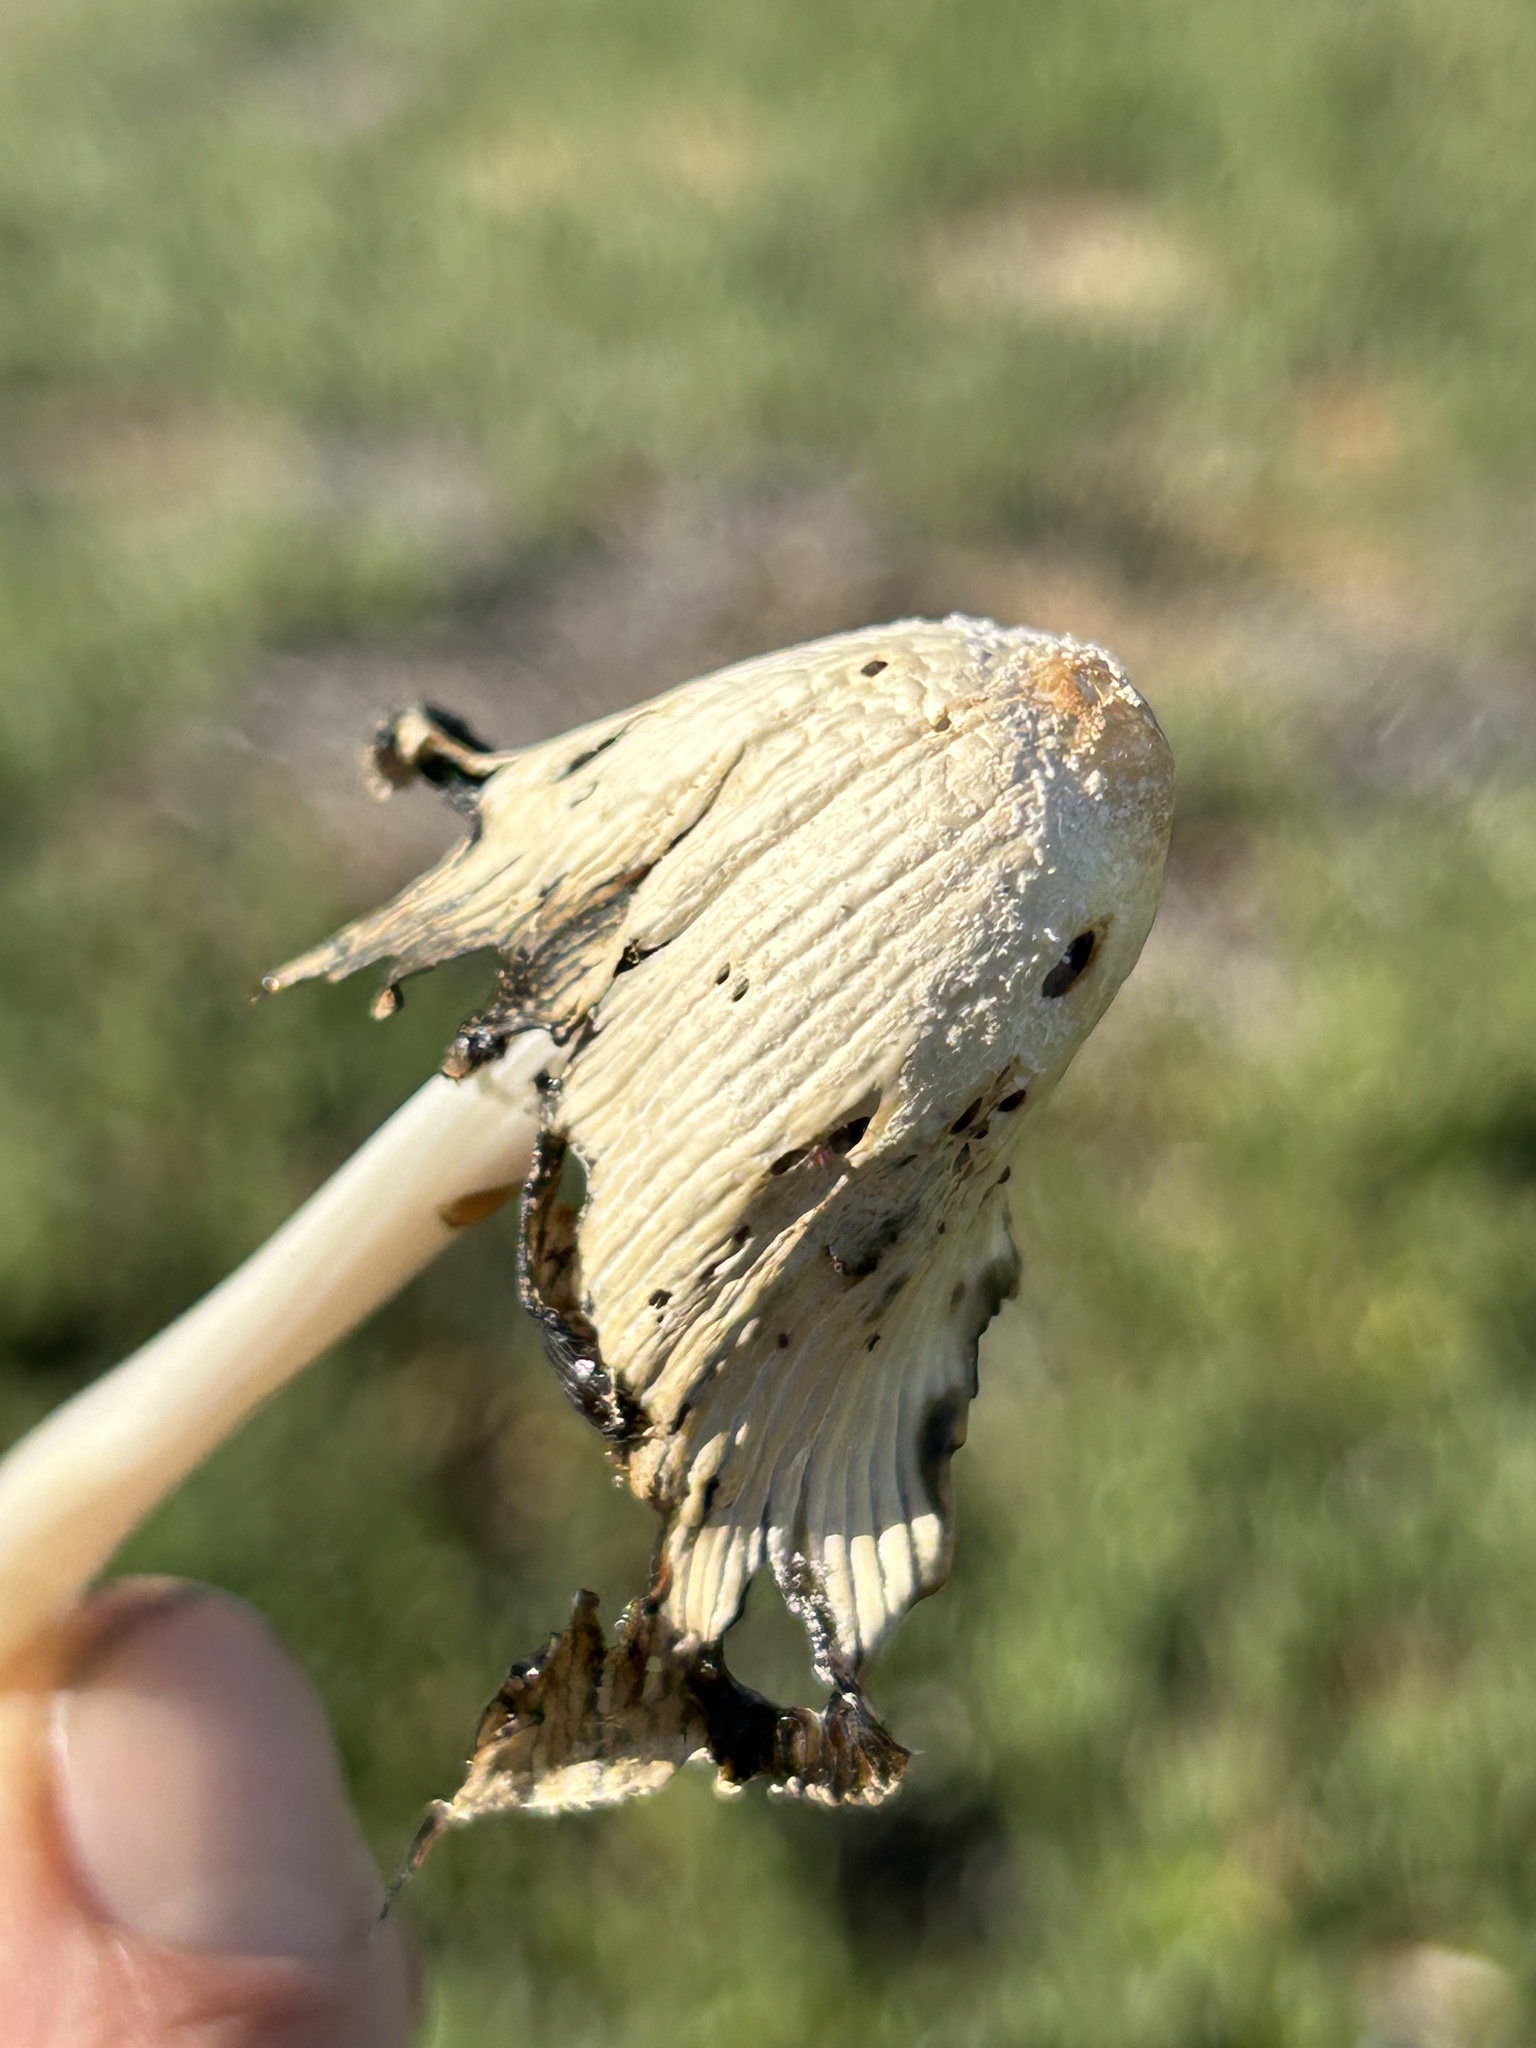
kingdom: Fungi
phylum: Basidiomycota
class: Agaricomycetes
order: Agaricales
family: Psathyrellaceae
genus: Coprinellus
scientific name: Coprinellus flocculosus
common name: Flocculose inkcap
